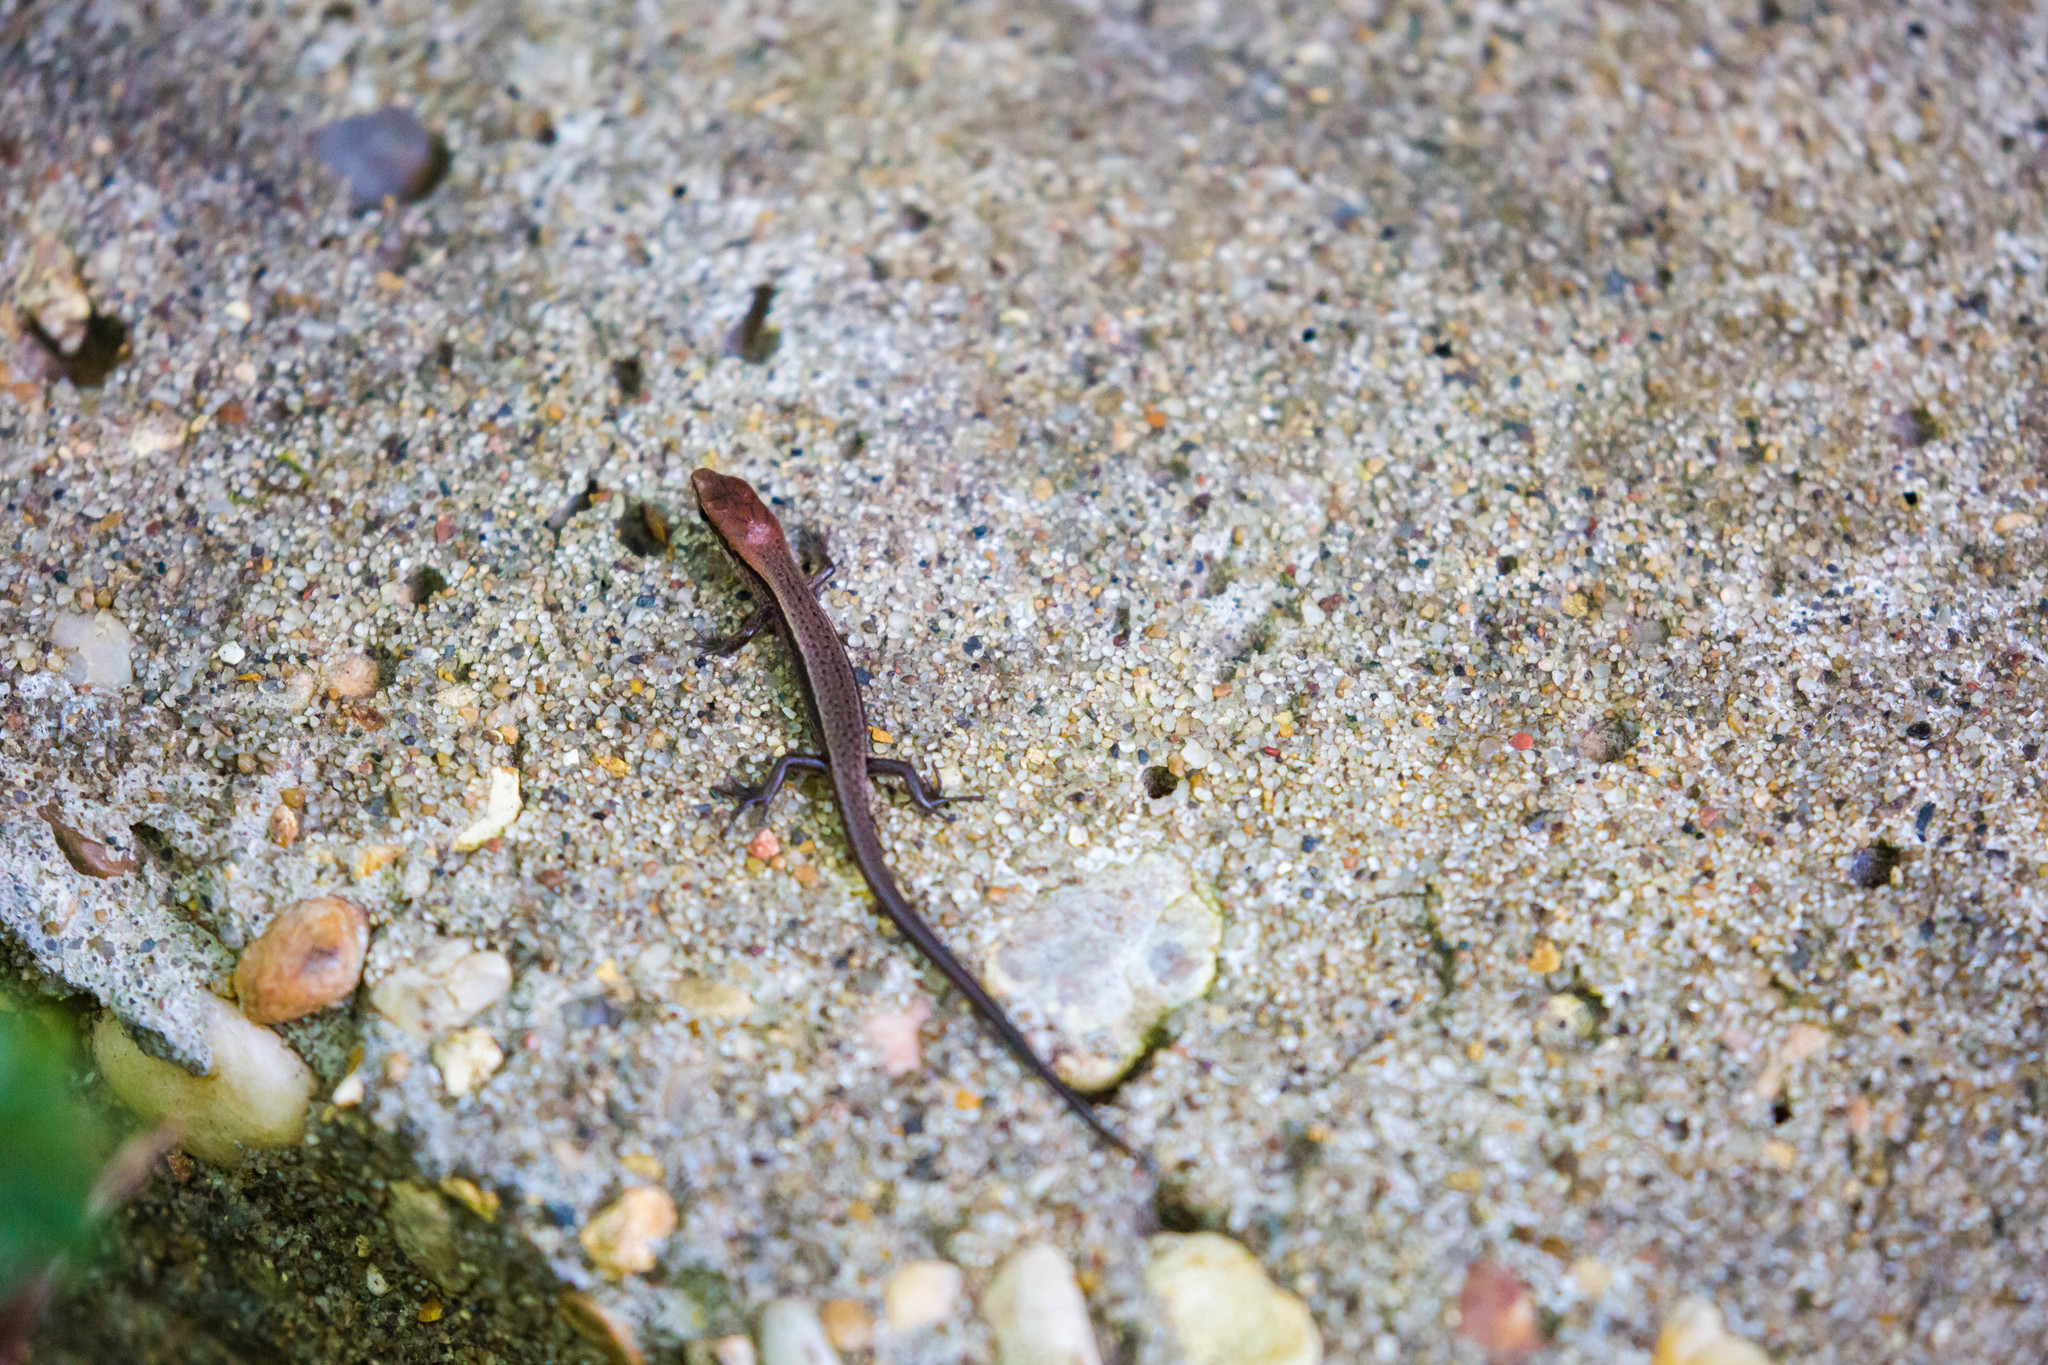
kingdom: Animalia
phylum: Chordata
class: Squamata
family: Scincidae
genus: Scincella
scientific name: Scincella lateralis
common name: Ground skink
